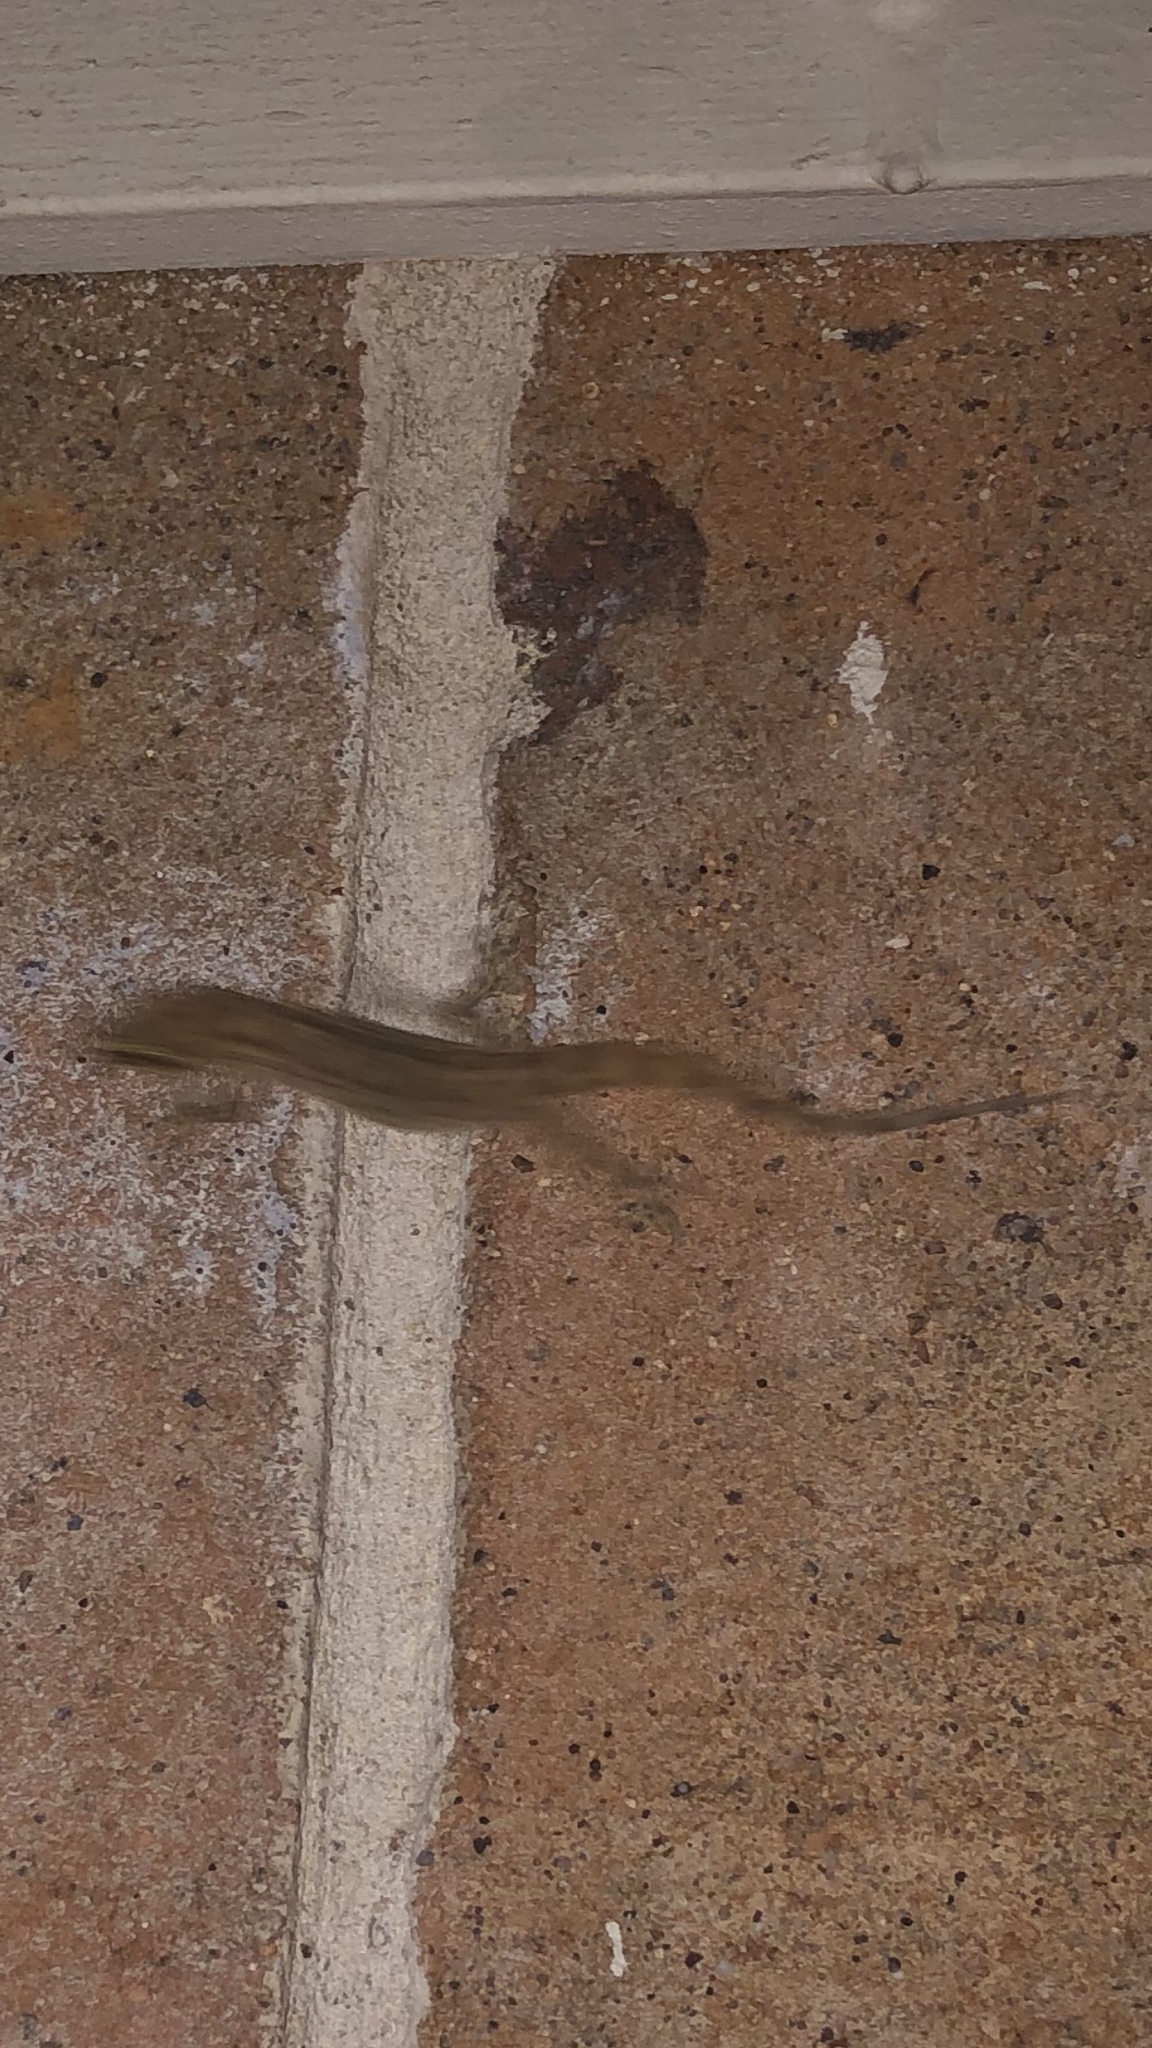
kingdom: Animalia
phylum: Chordata
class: Squamata
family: Gekkonidae
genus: Hemidactylus
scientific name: Hemidactylus turcicus
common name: Turkish gecko
